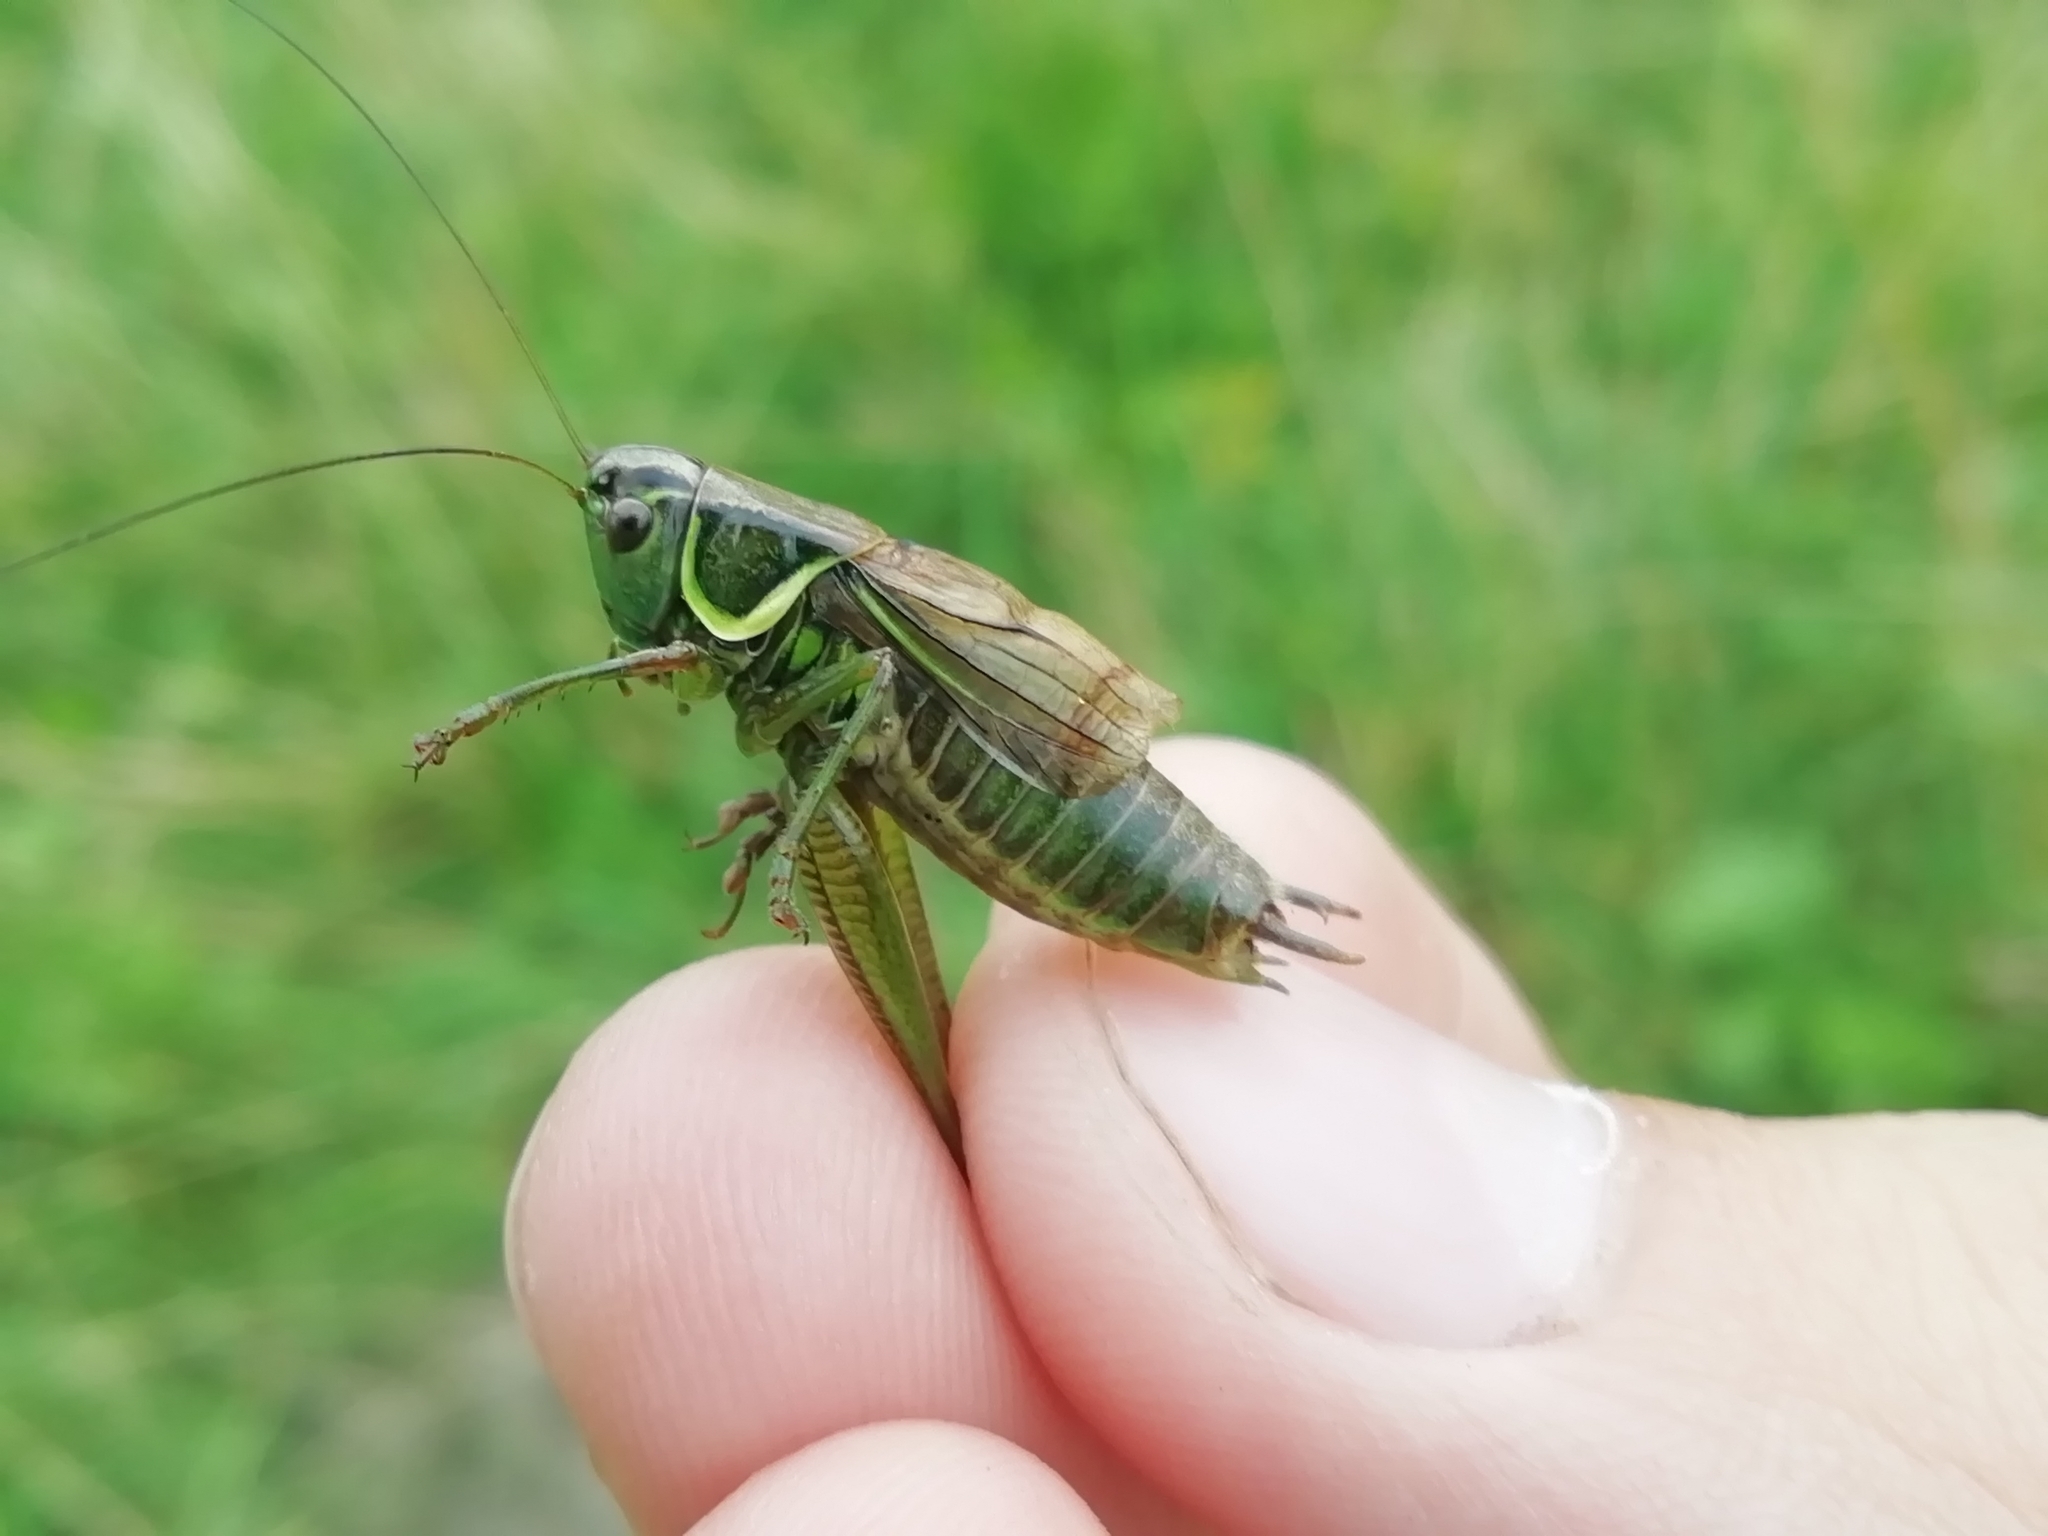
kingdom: Animalia
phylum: Arthropoda
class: Insecta
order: Orthoptera
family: Tettigoniidae
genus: Roeseliana
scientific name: Roeseliana roeselii
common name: Roesel's bush cricket
